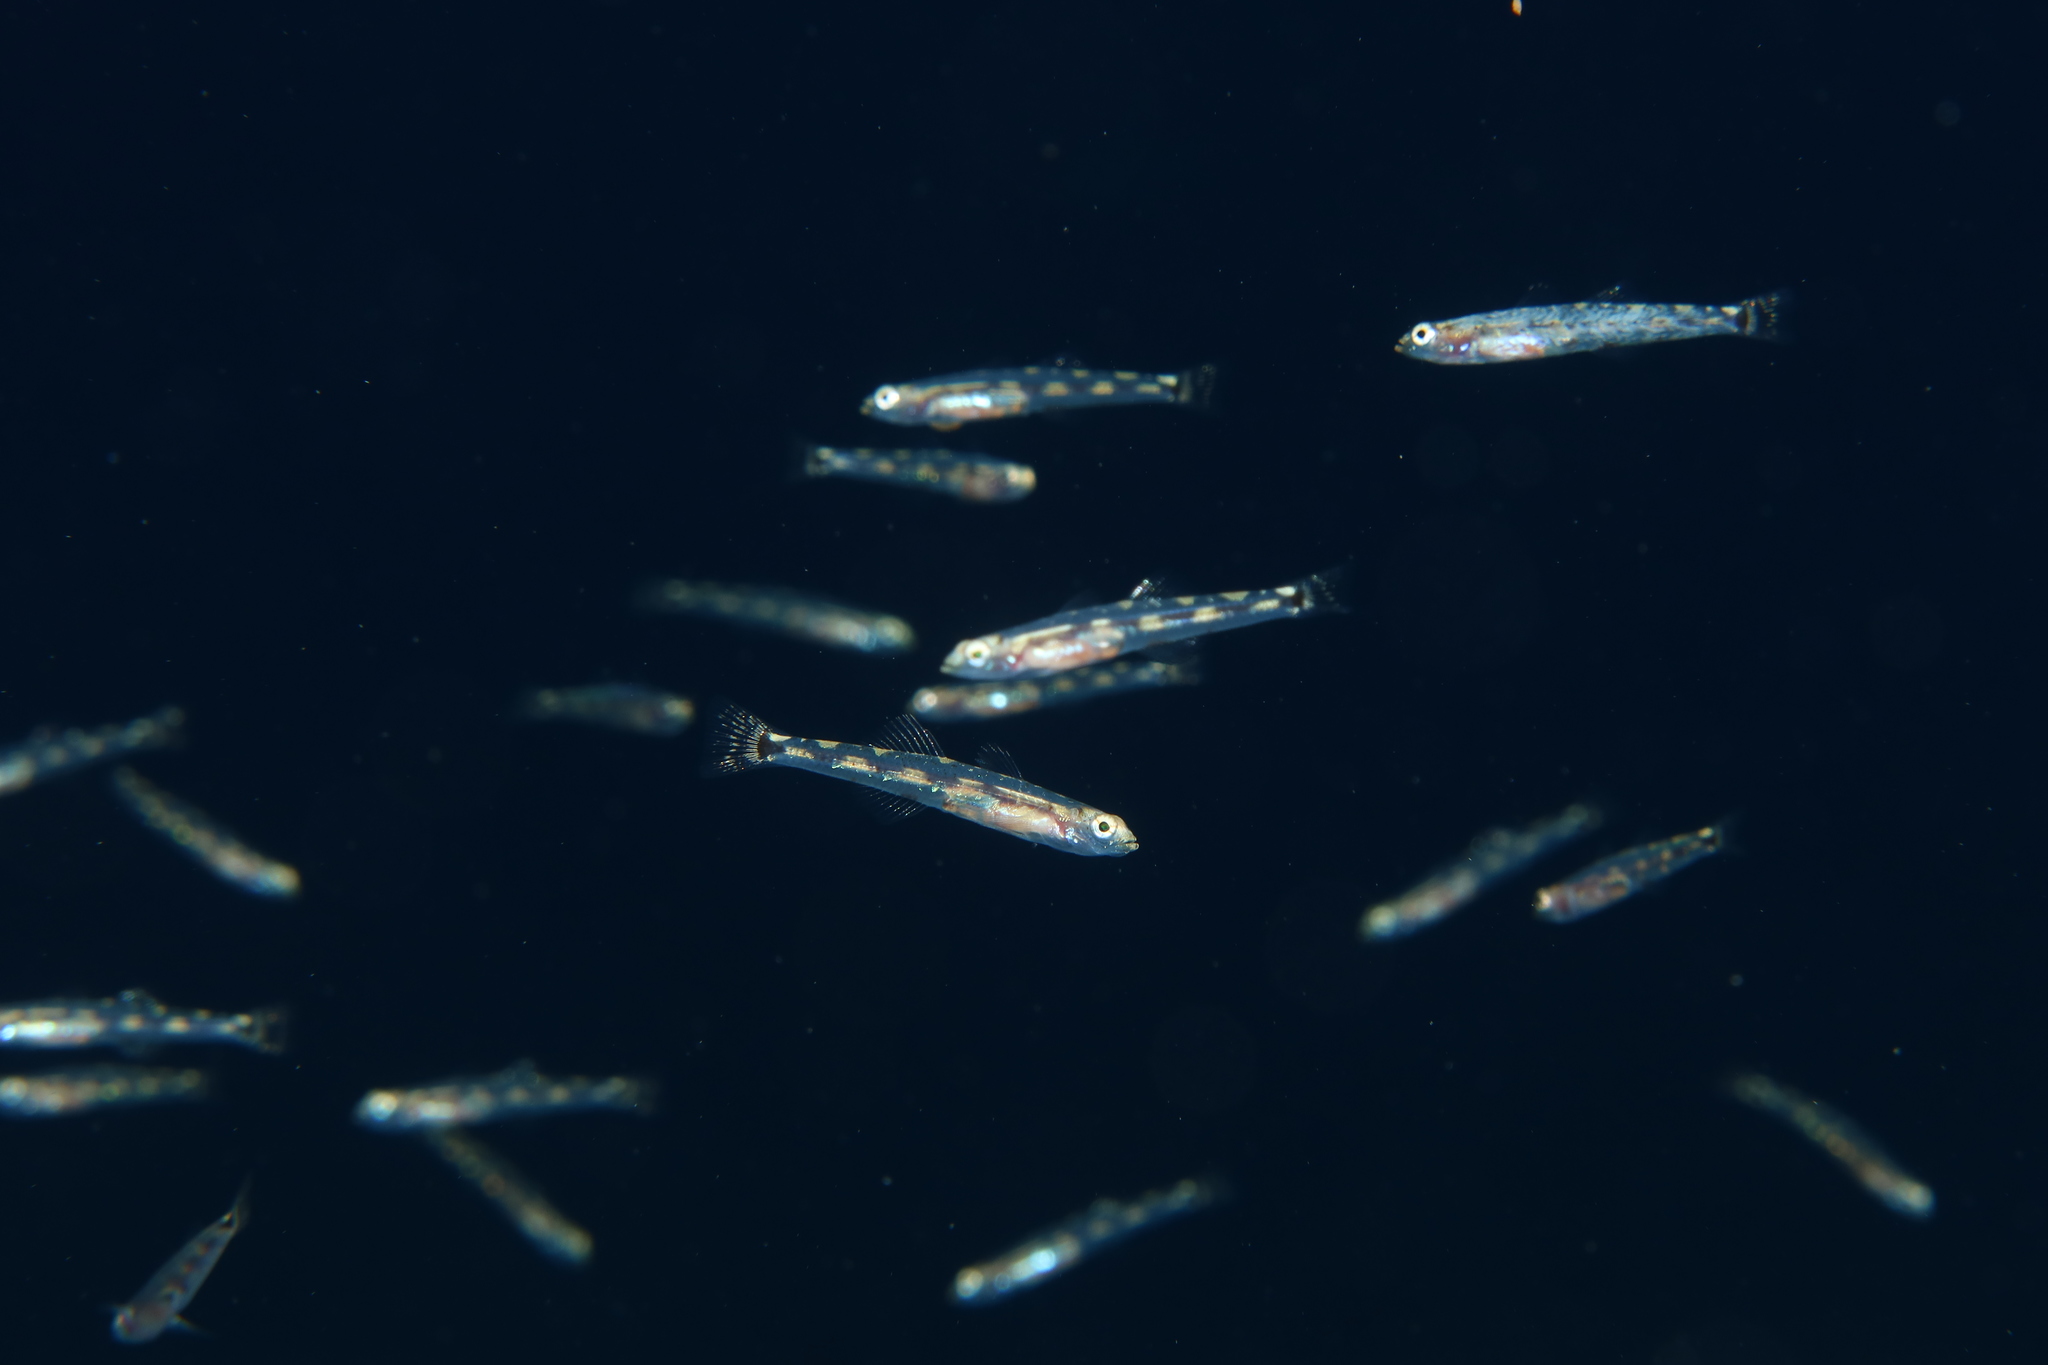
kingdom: Animalia
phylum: Chordata
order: Perciformes
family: Gobiidae
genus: Pomatoschistus
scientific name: Pomatoschistus quagga
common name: Quagga goby
